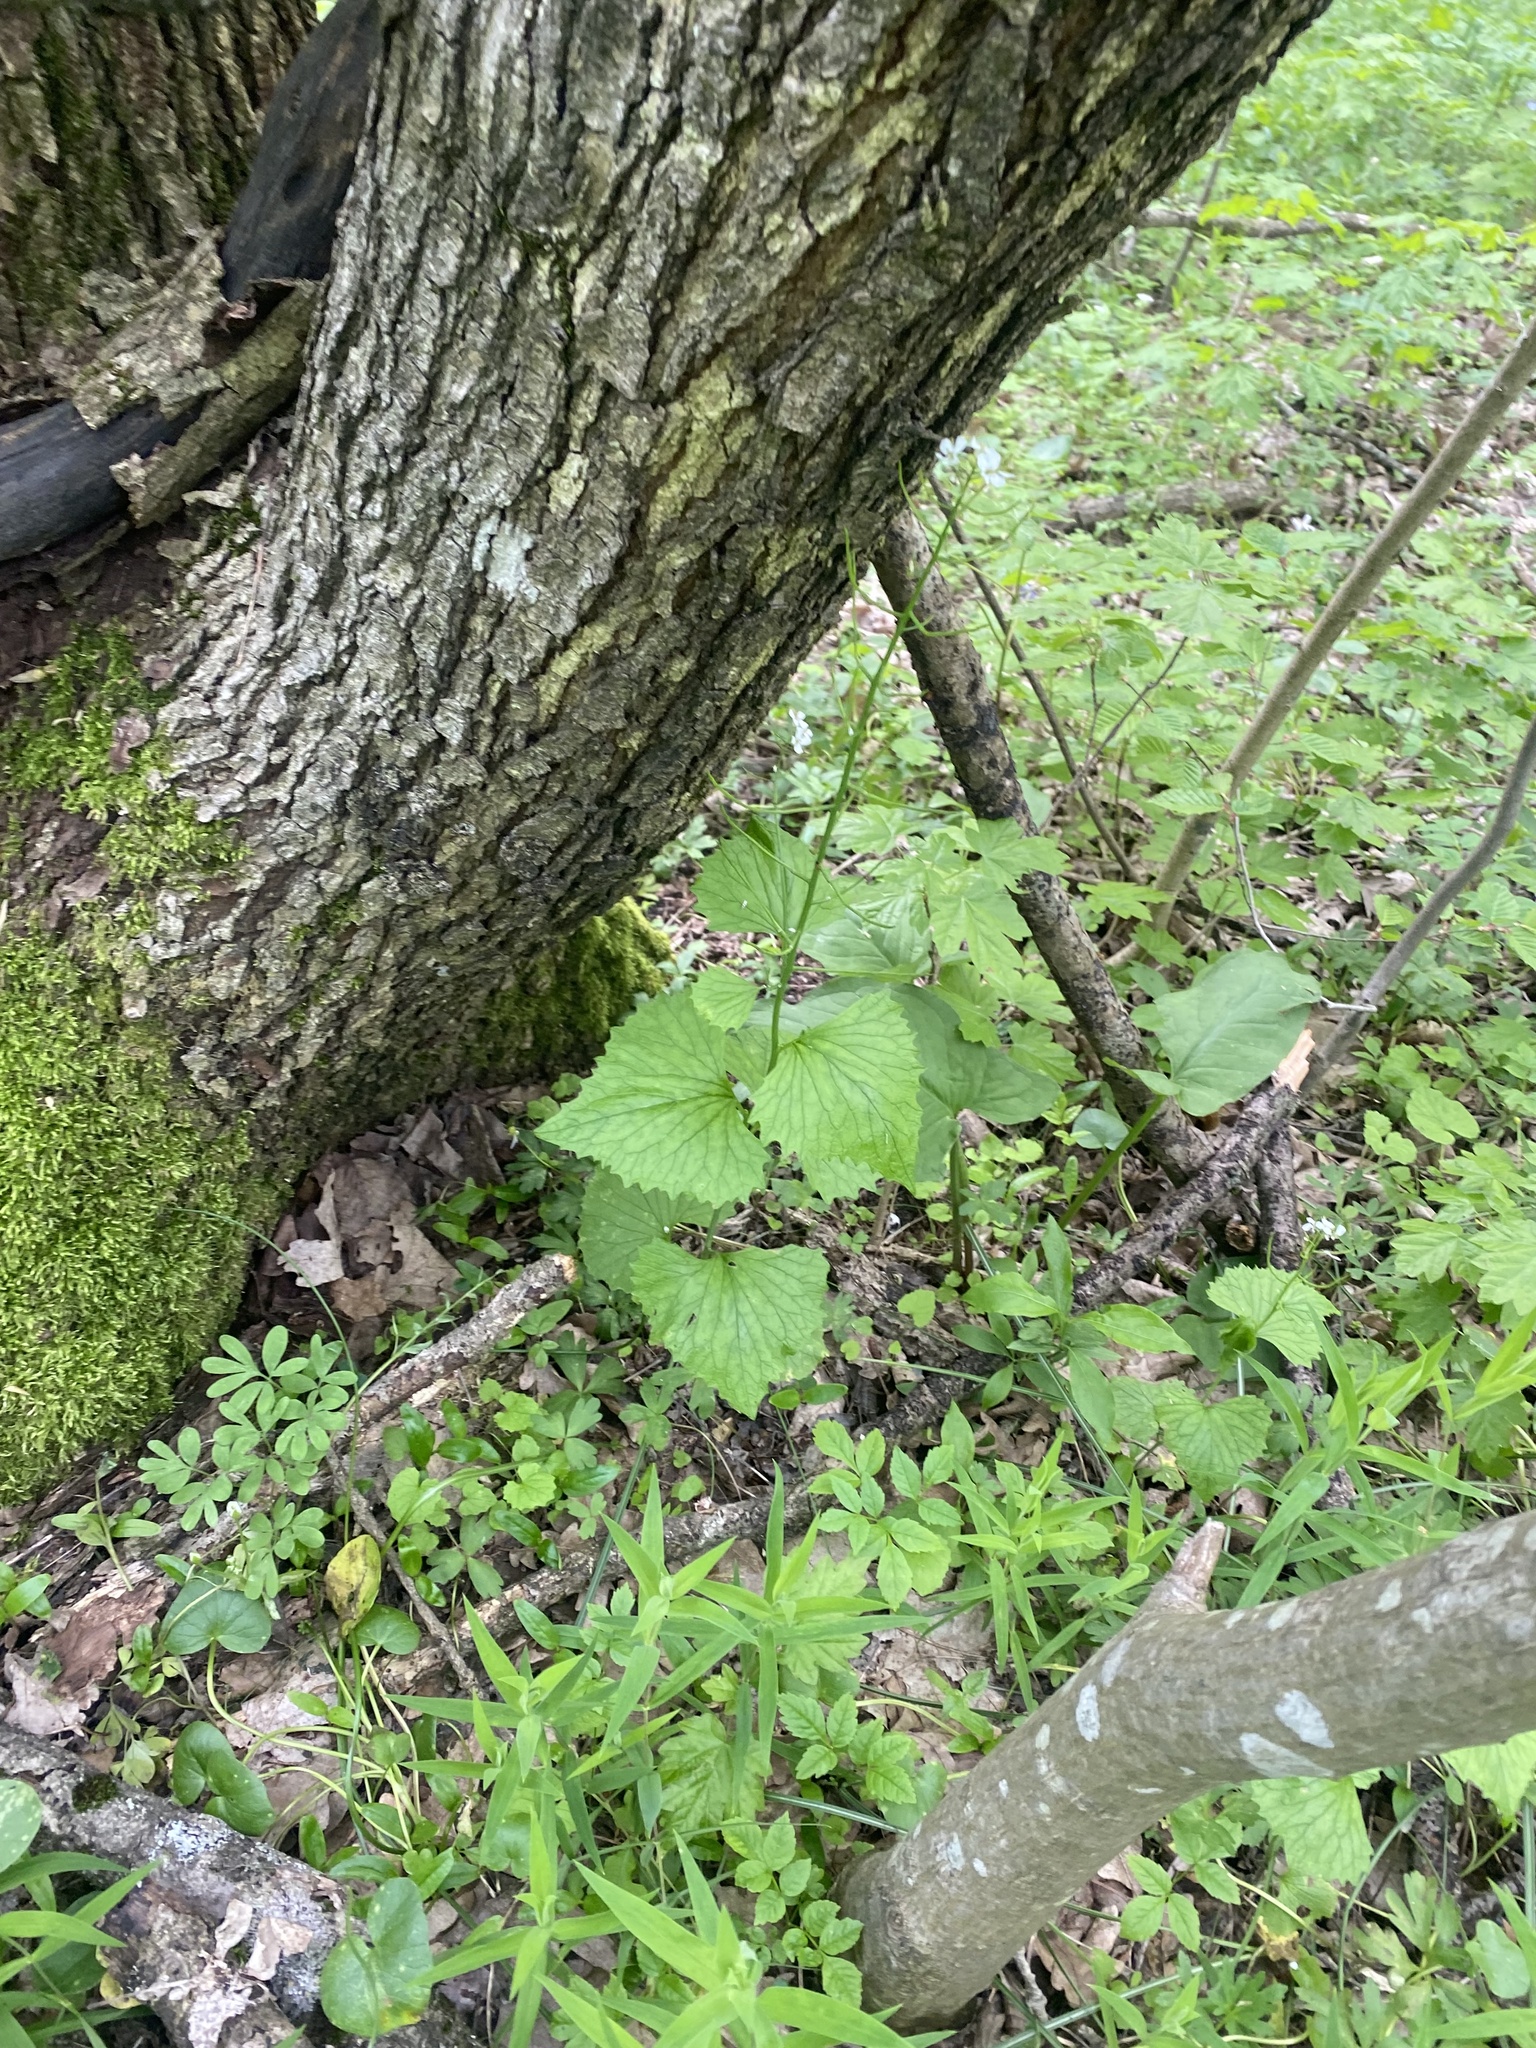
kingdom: Plantae
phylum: Tracheophyta
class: Magnoliopsida
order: Brassicales
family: Brassicaceae
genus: Alliaria
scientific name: Alliaria petiolata
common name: Garlic mustard
